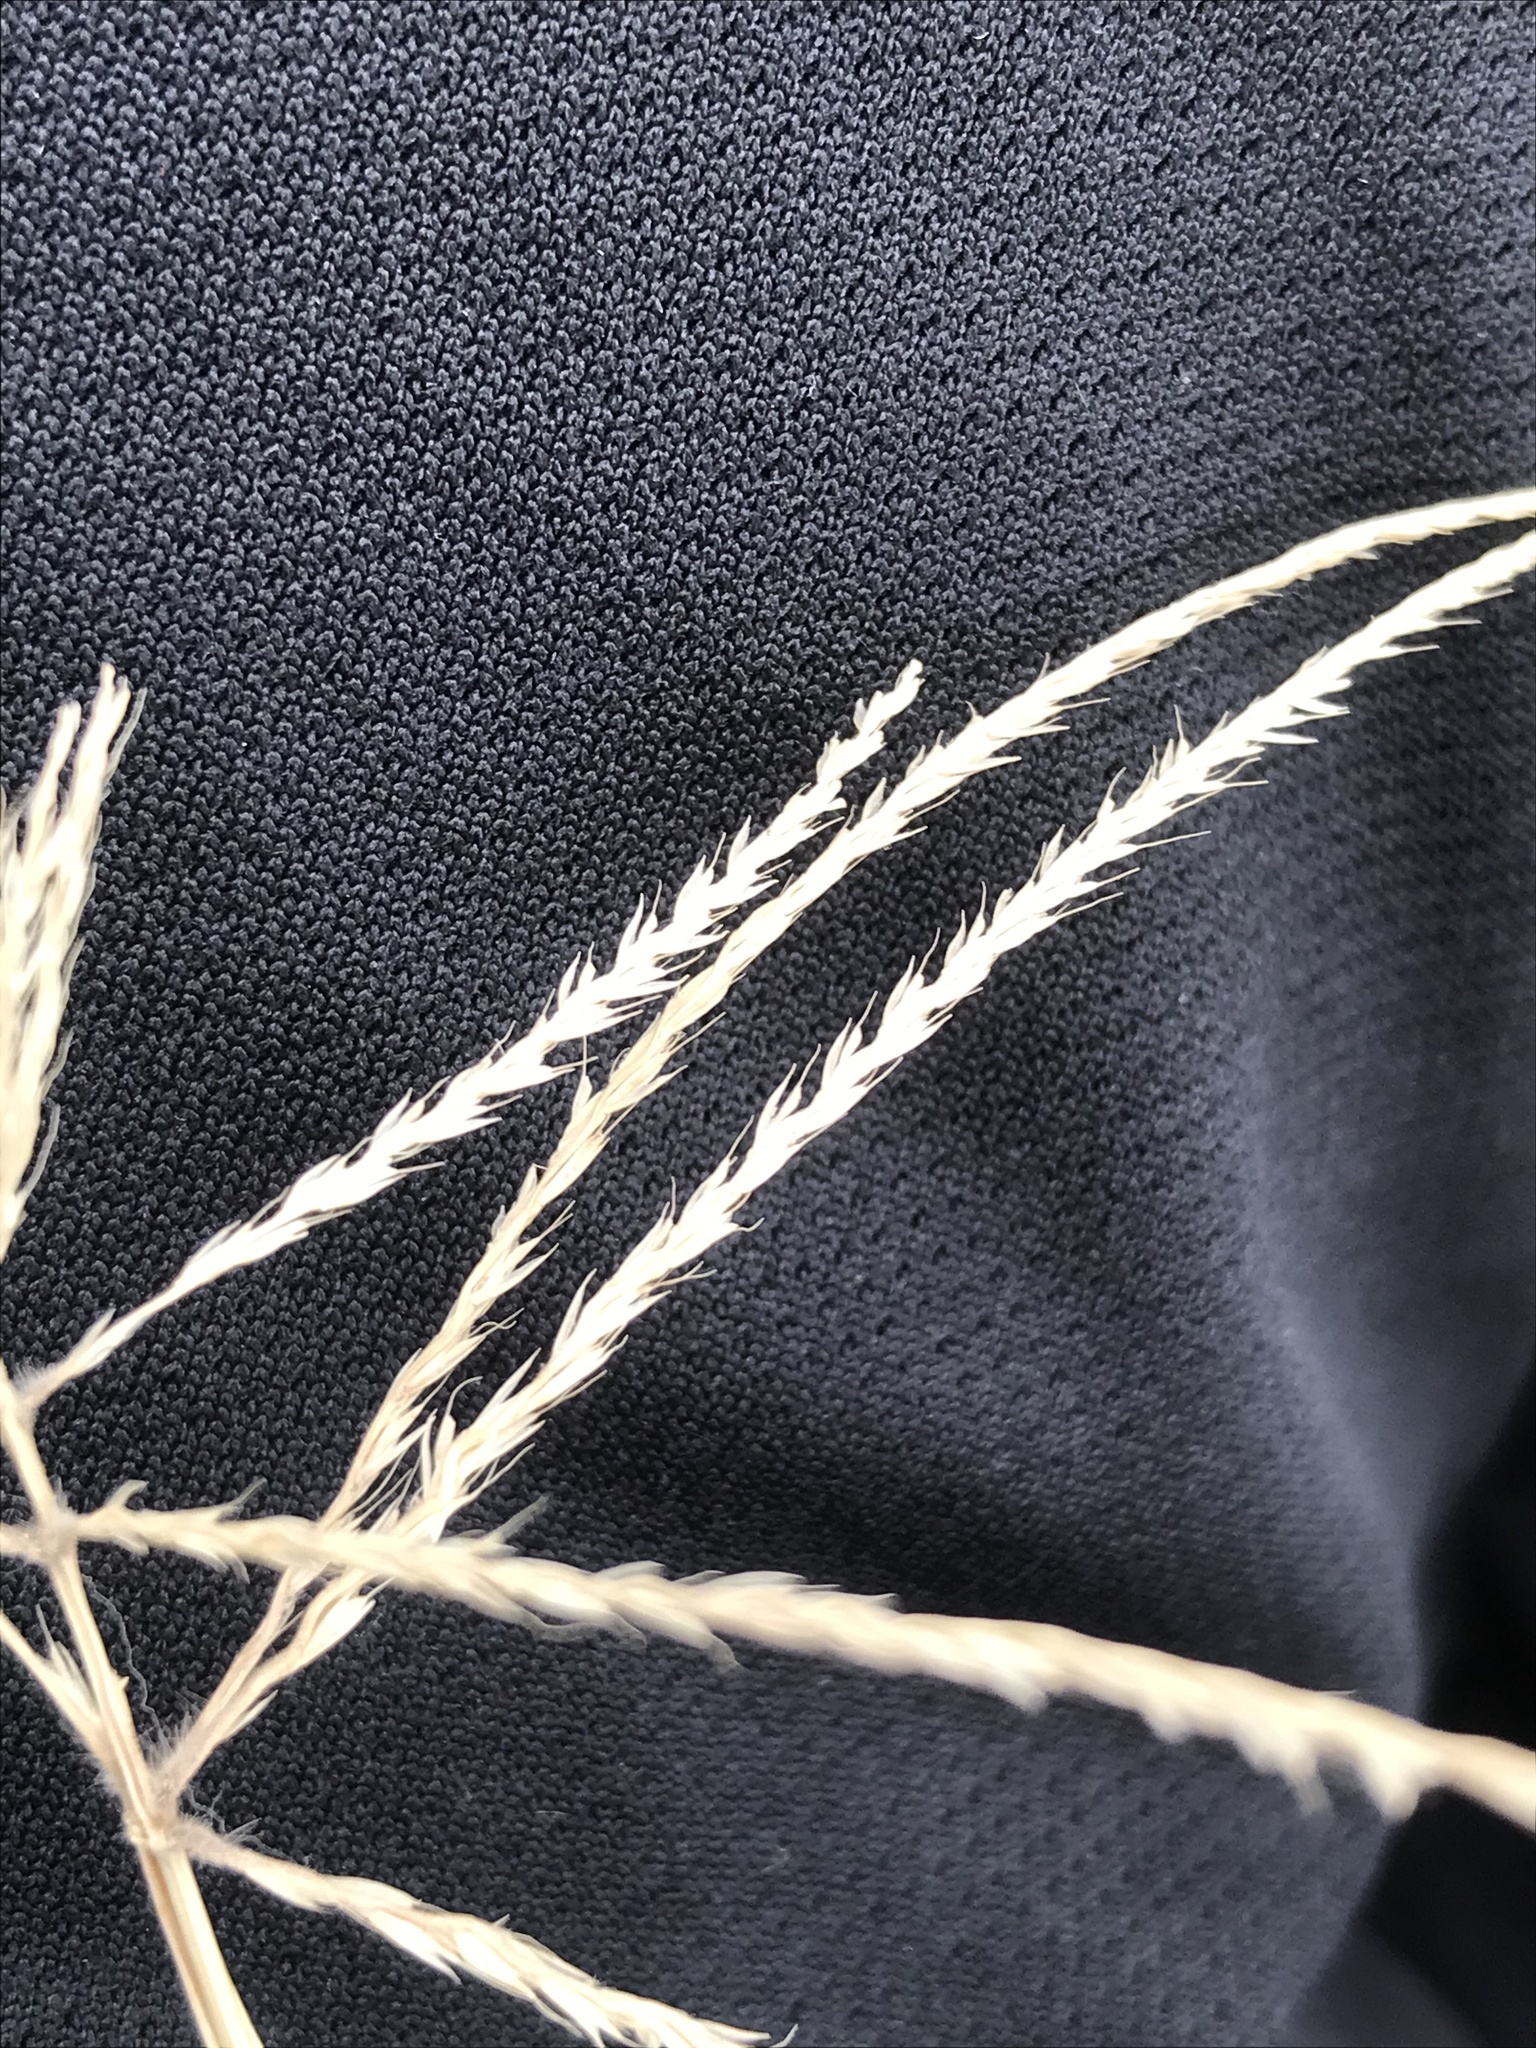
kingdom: Plantae
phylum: Tracheophyta
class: Liliopsida
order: Poales
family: Poaceae
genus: Chloris
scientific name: Chloris verticillata
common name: Tumble windmill grass
